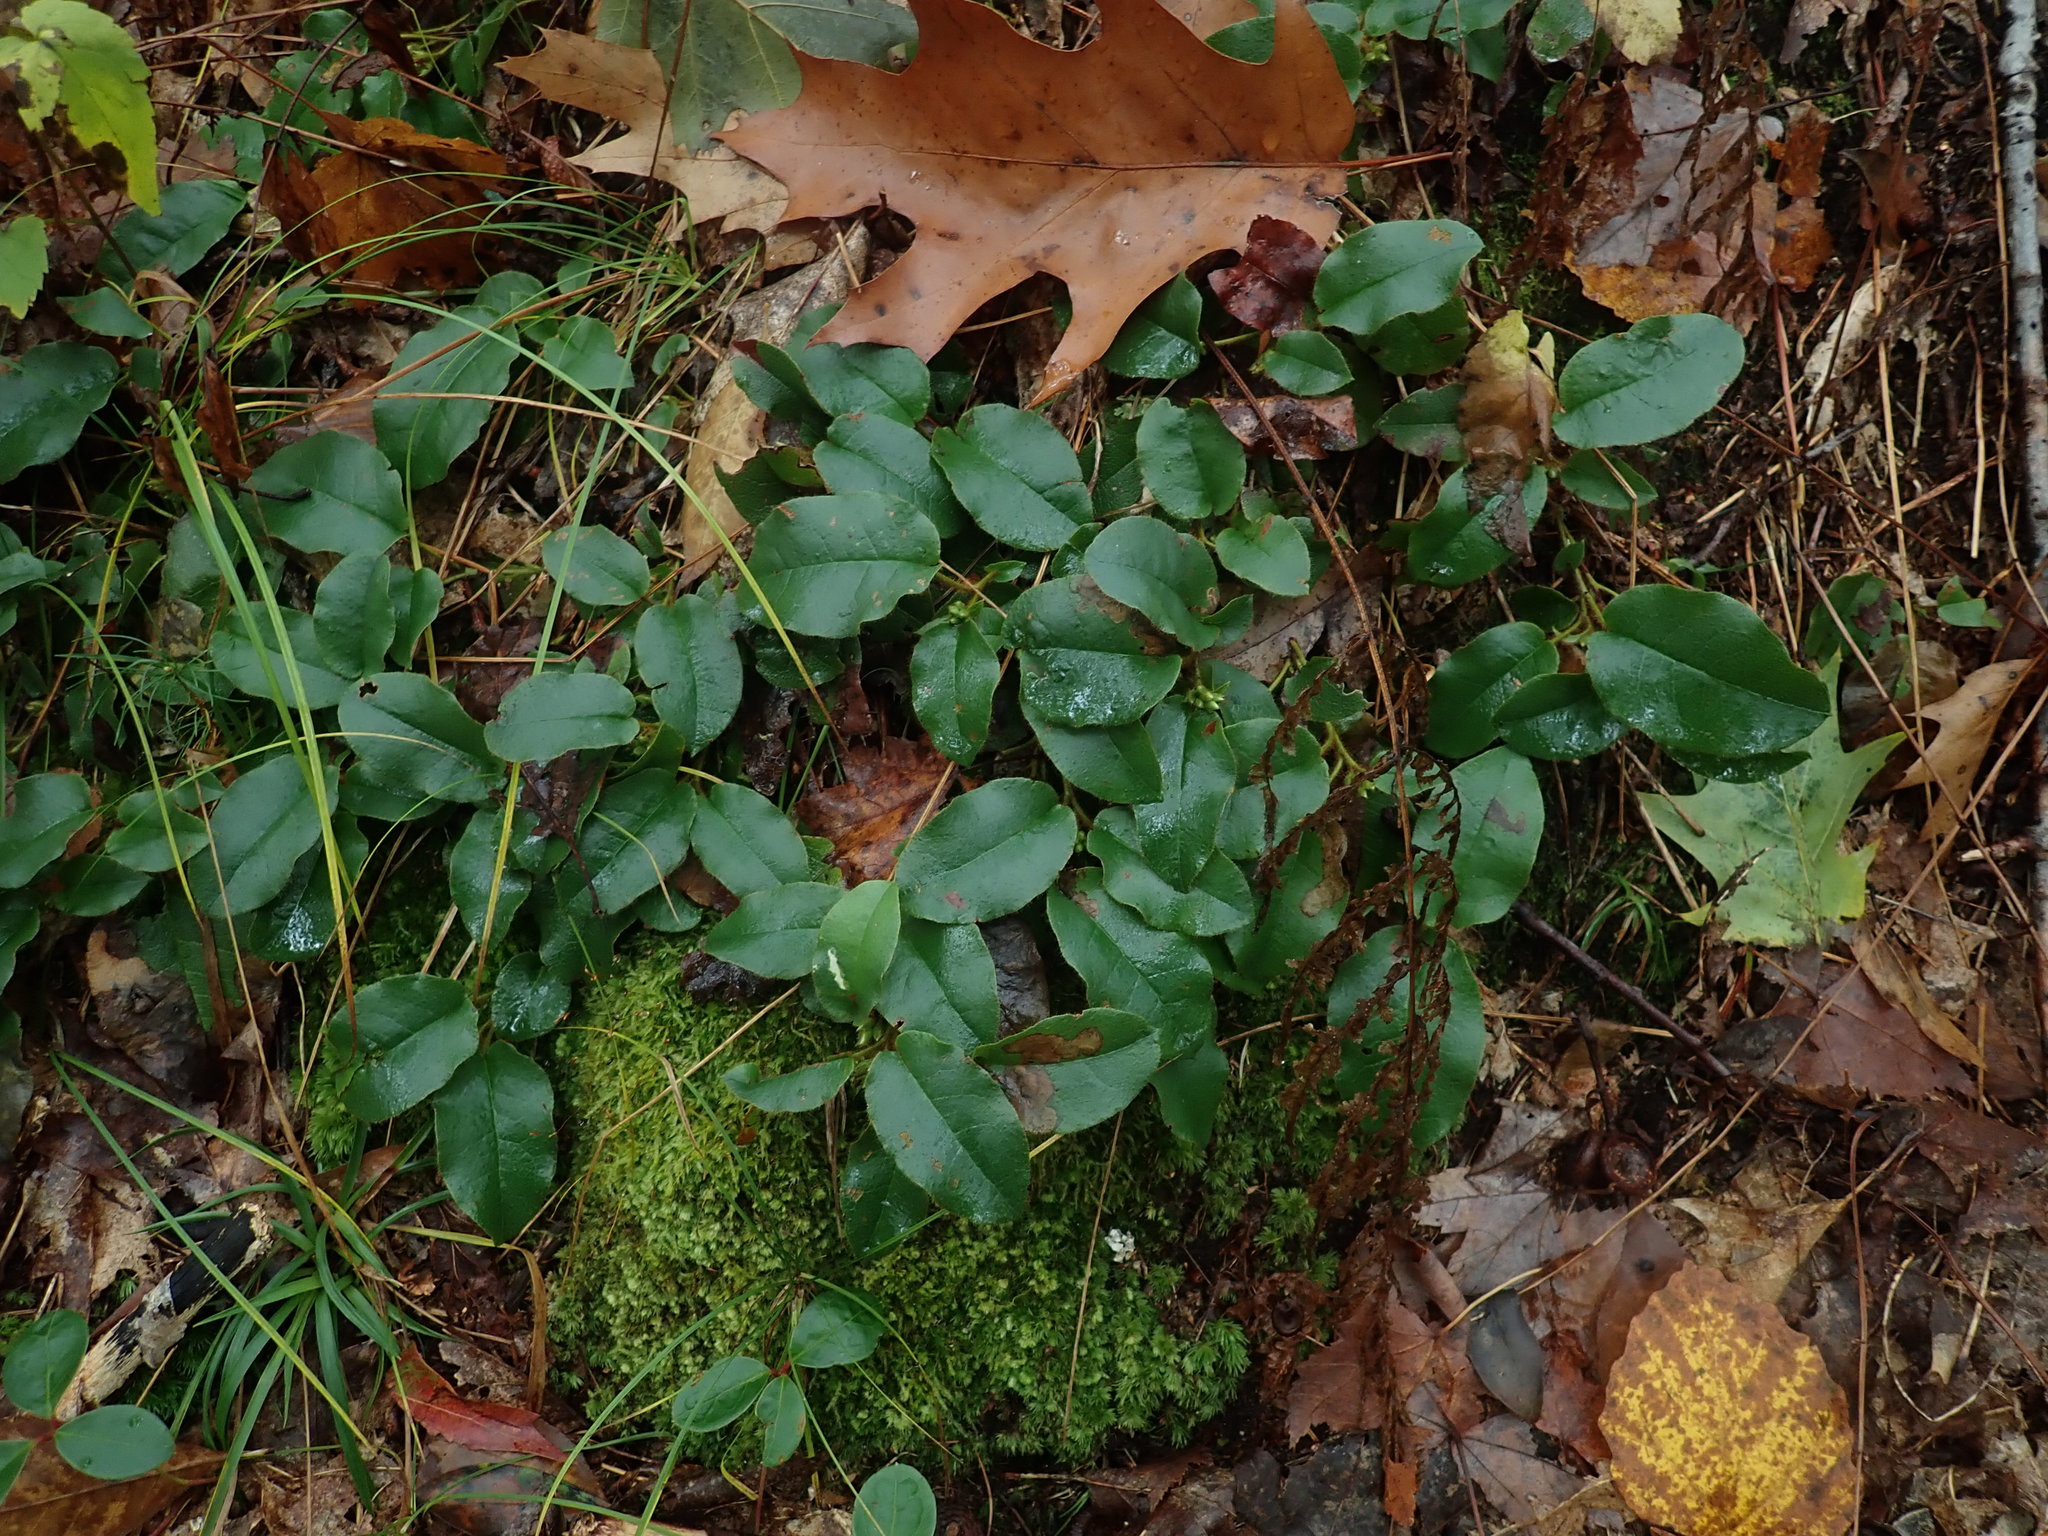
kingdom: Plantae
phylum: Tracheophyta
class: Magnoliopsida
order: Ericales
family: Ericaceae
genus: Epigaea
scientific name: Epigaea repens
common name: Gravelroot
